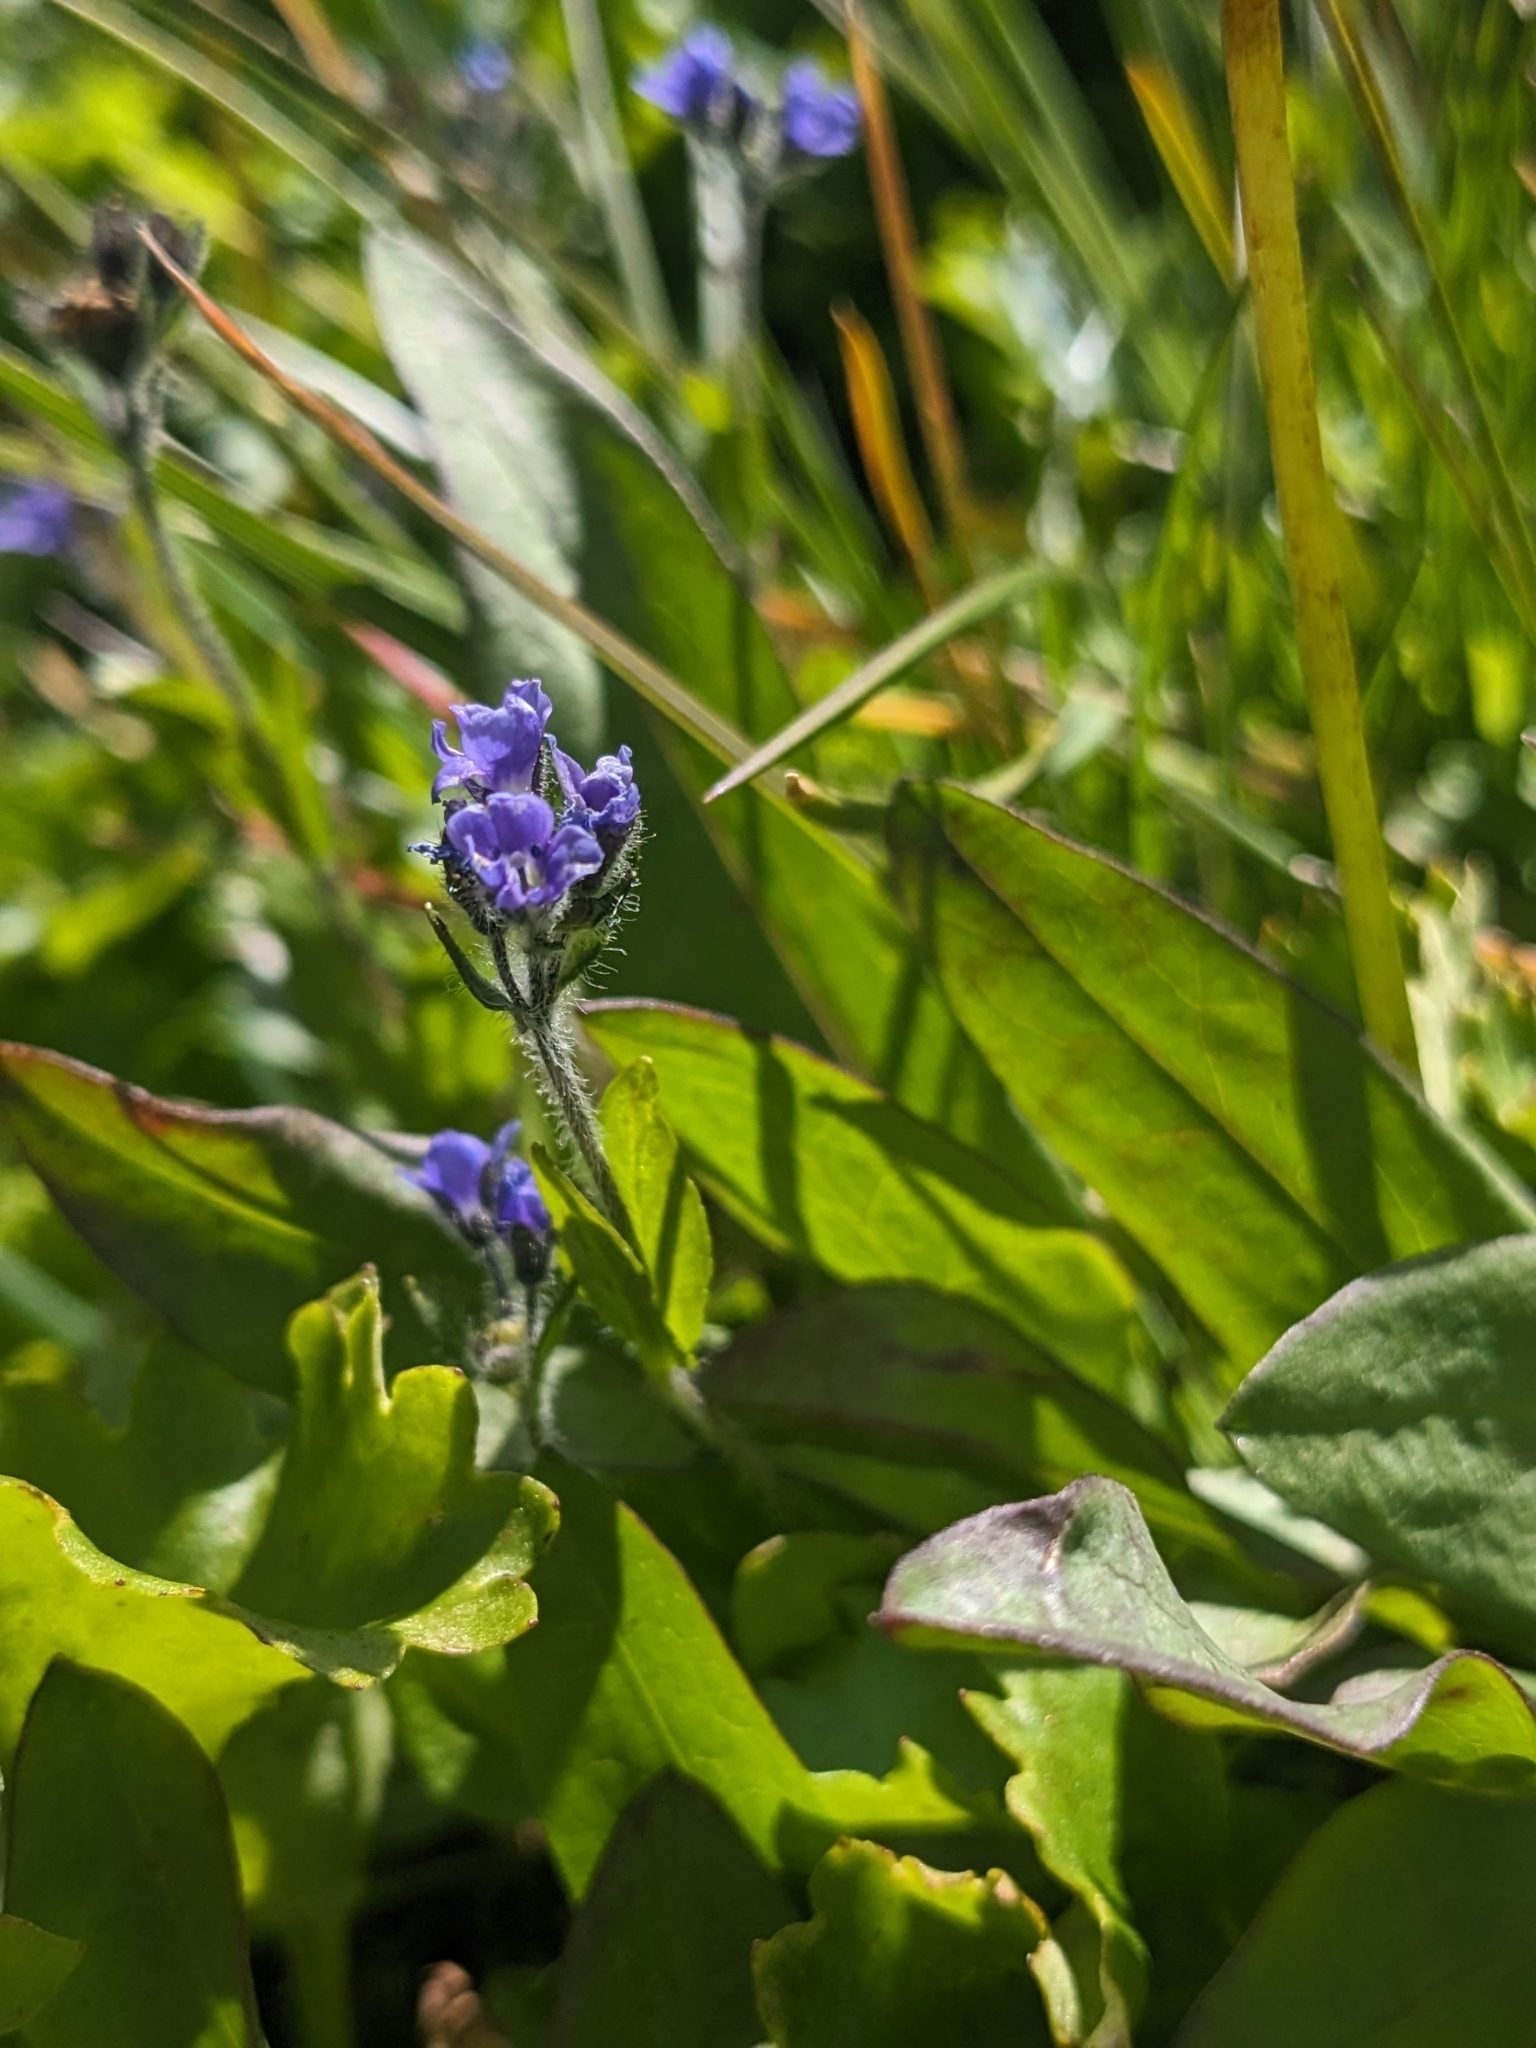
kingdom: Plantae
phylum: Tracheophyta
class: Magnoliopsida
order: Lamiales
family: Plantaginaceae
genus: Veronica
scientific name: Veronica wormskjoldii
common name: American alpine speedwell
